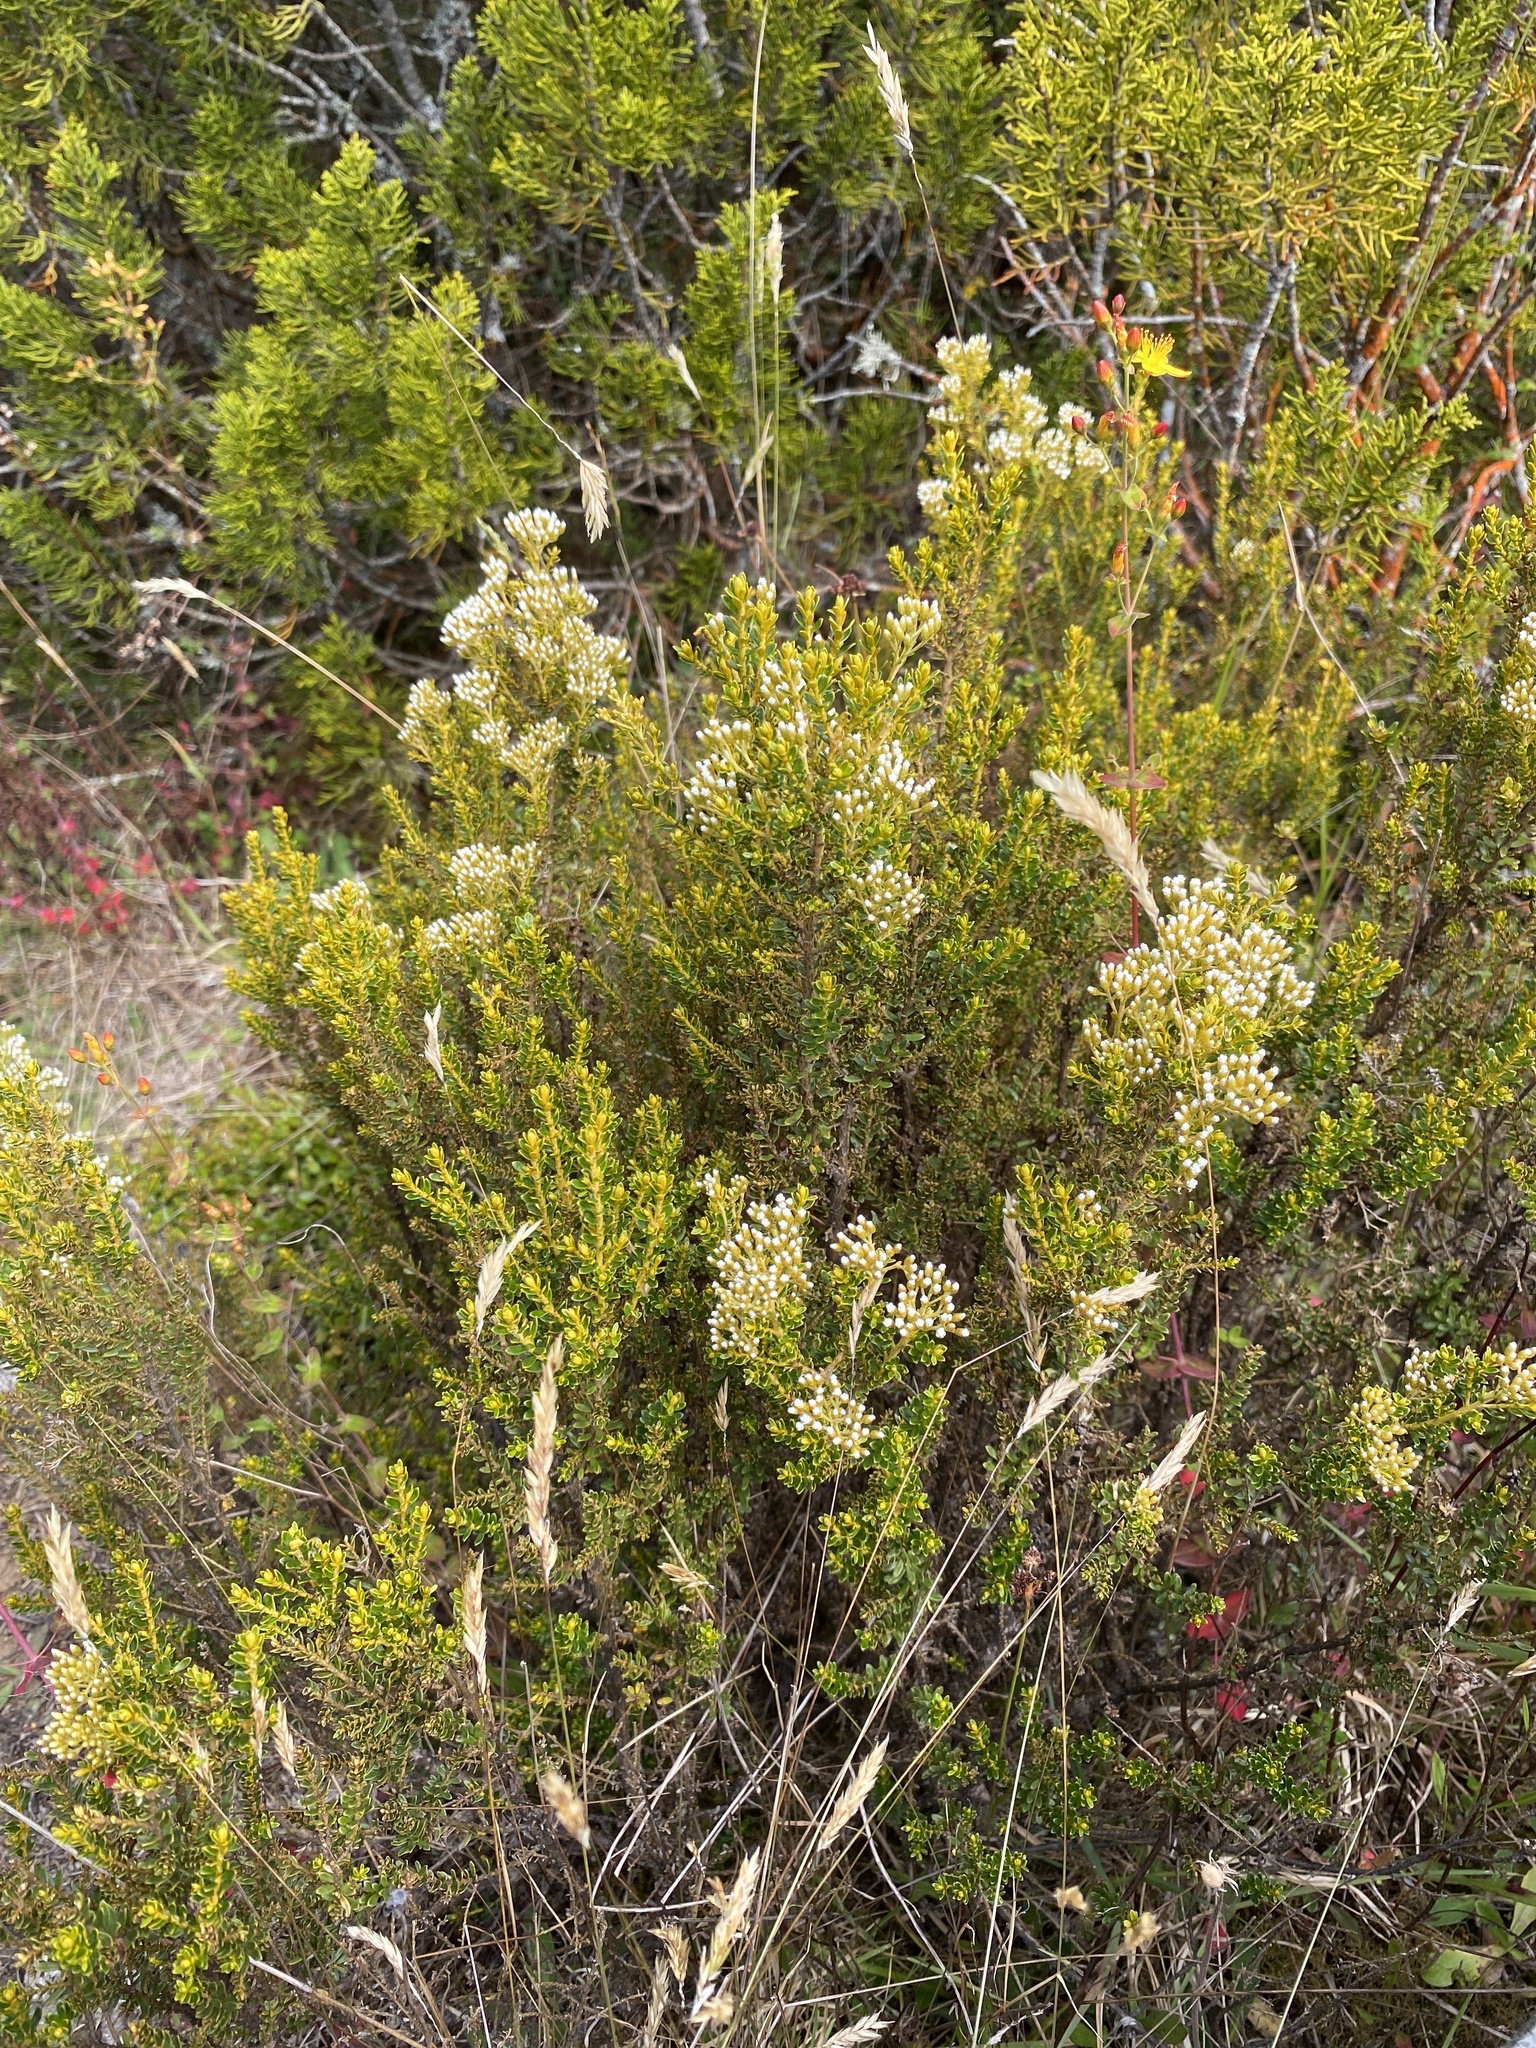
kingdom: Plantae
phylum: Tracheophyta
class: Magnoliopsida
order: Asterales
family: Asteraceae
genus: Ozothamnus
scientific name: Ozothamnus leptophyllus
